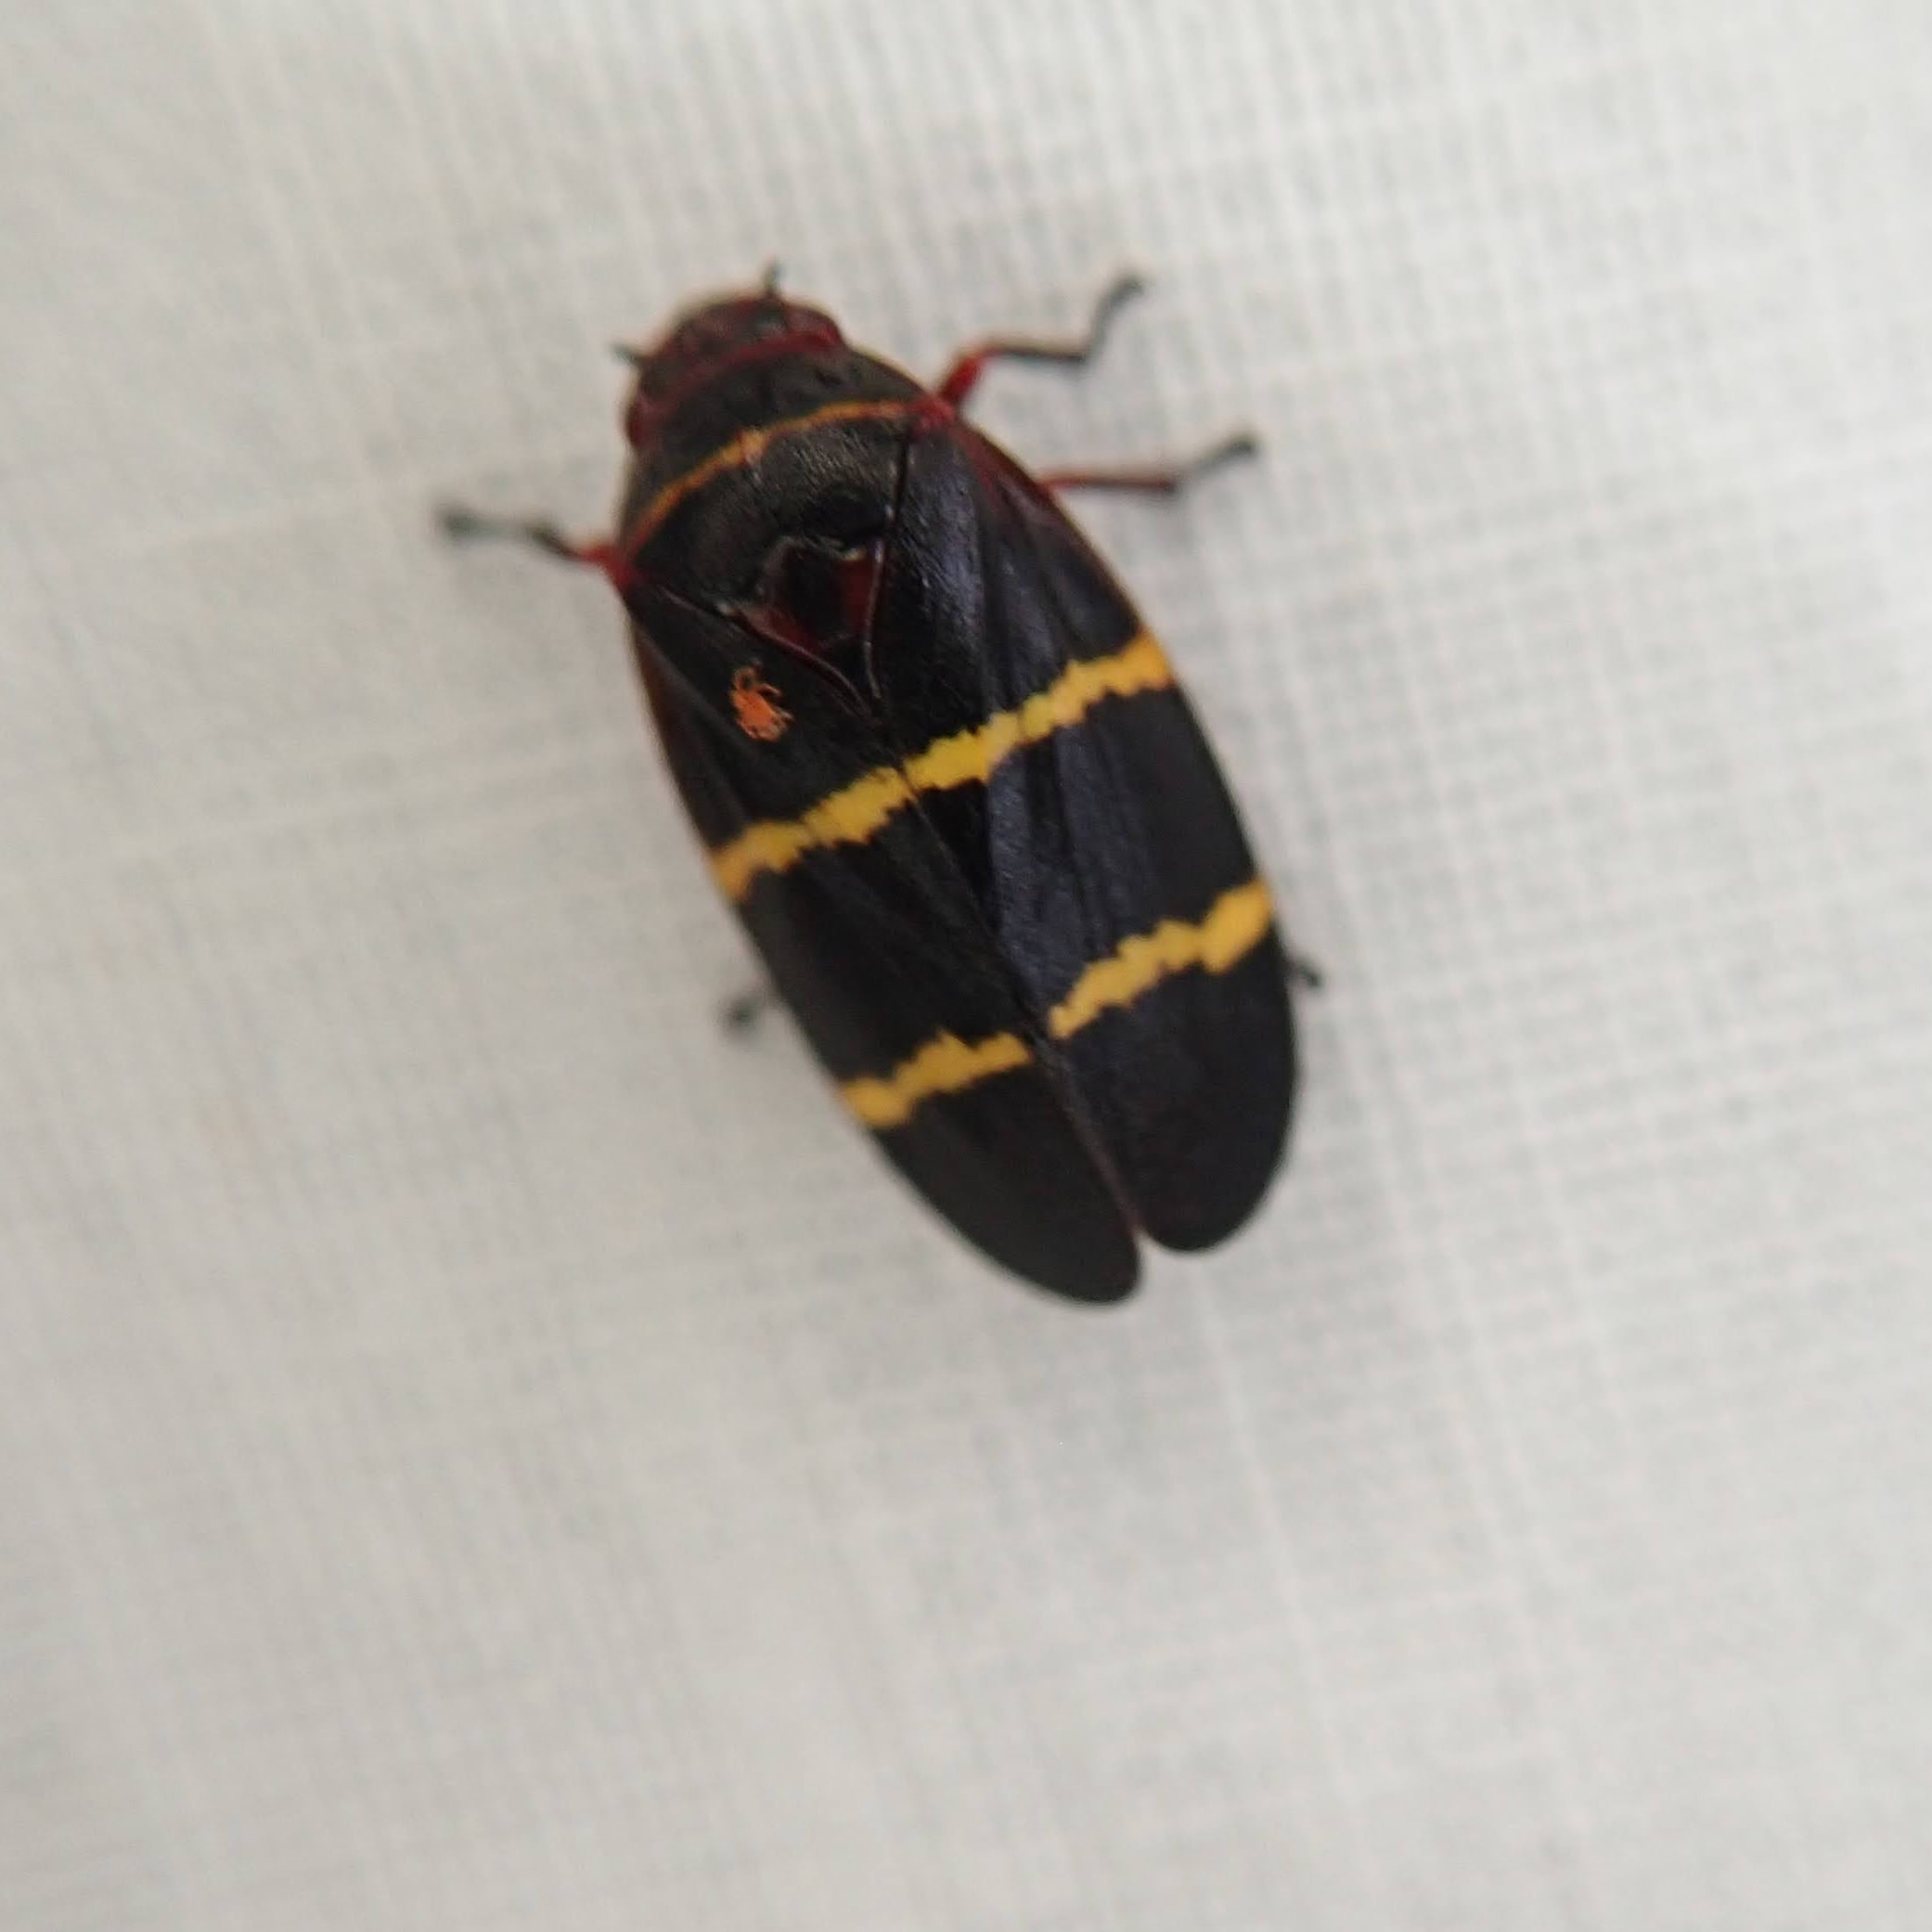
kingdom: Animalia
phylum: Arthropoda
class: Insecta
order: Hemiptera
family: Cercopidae
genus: Prosapia
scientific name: Prosapia bicincta
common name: Twolined spittlebug
